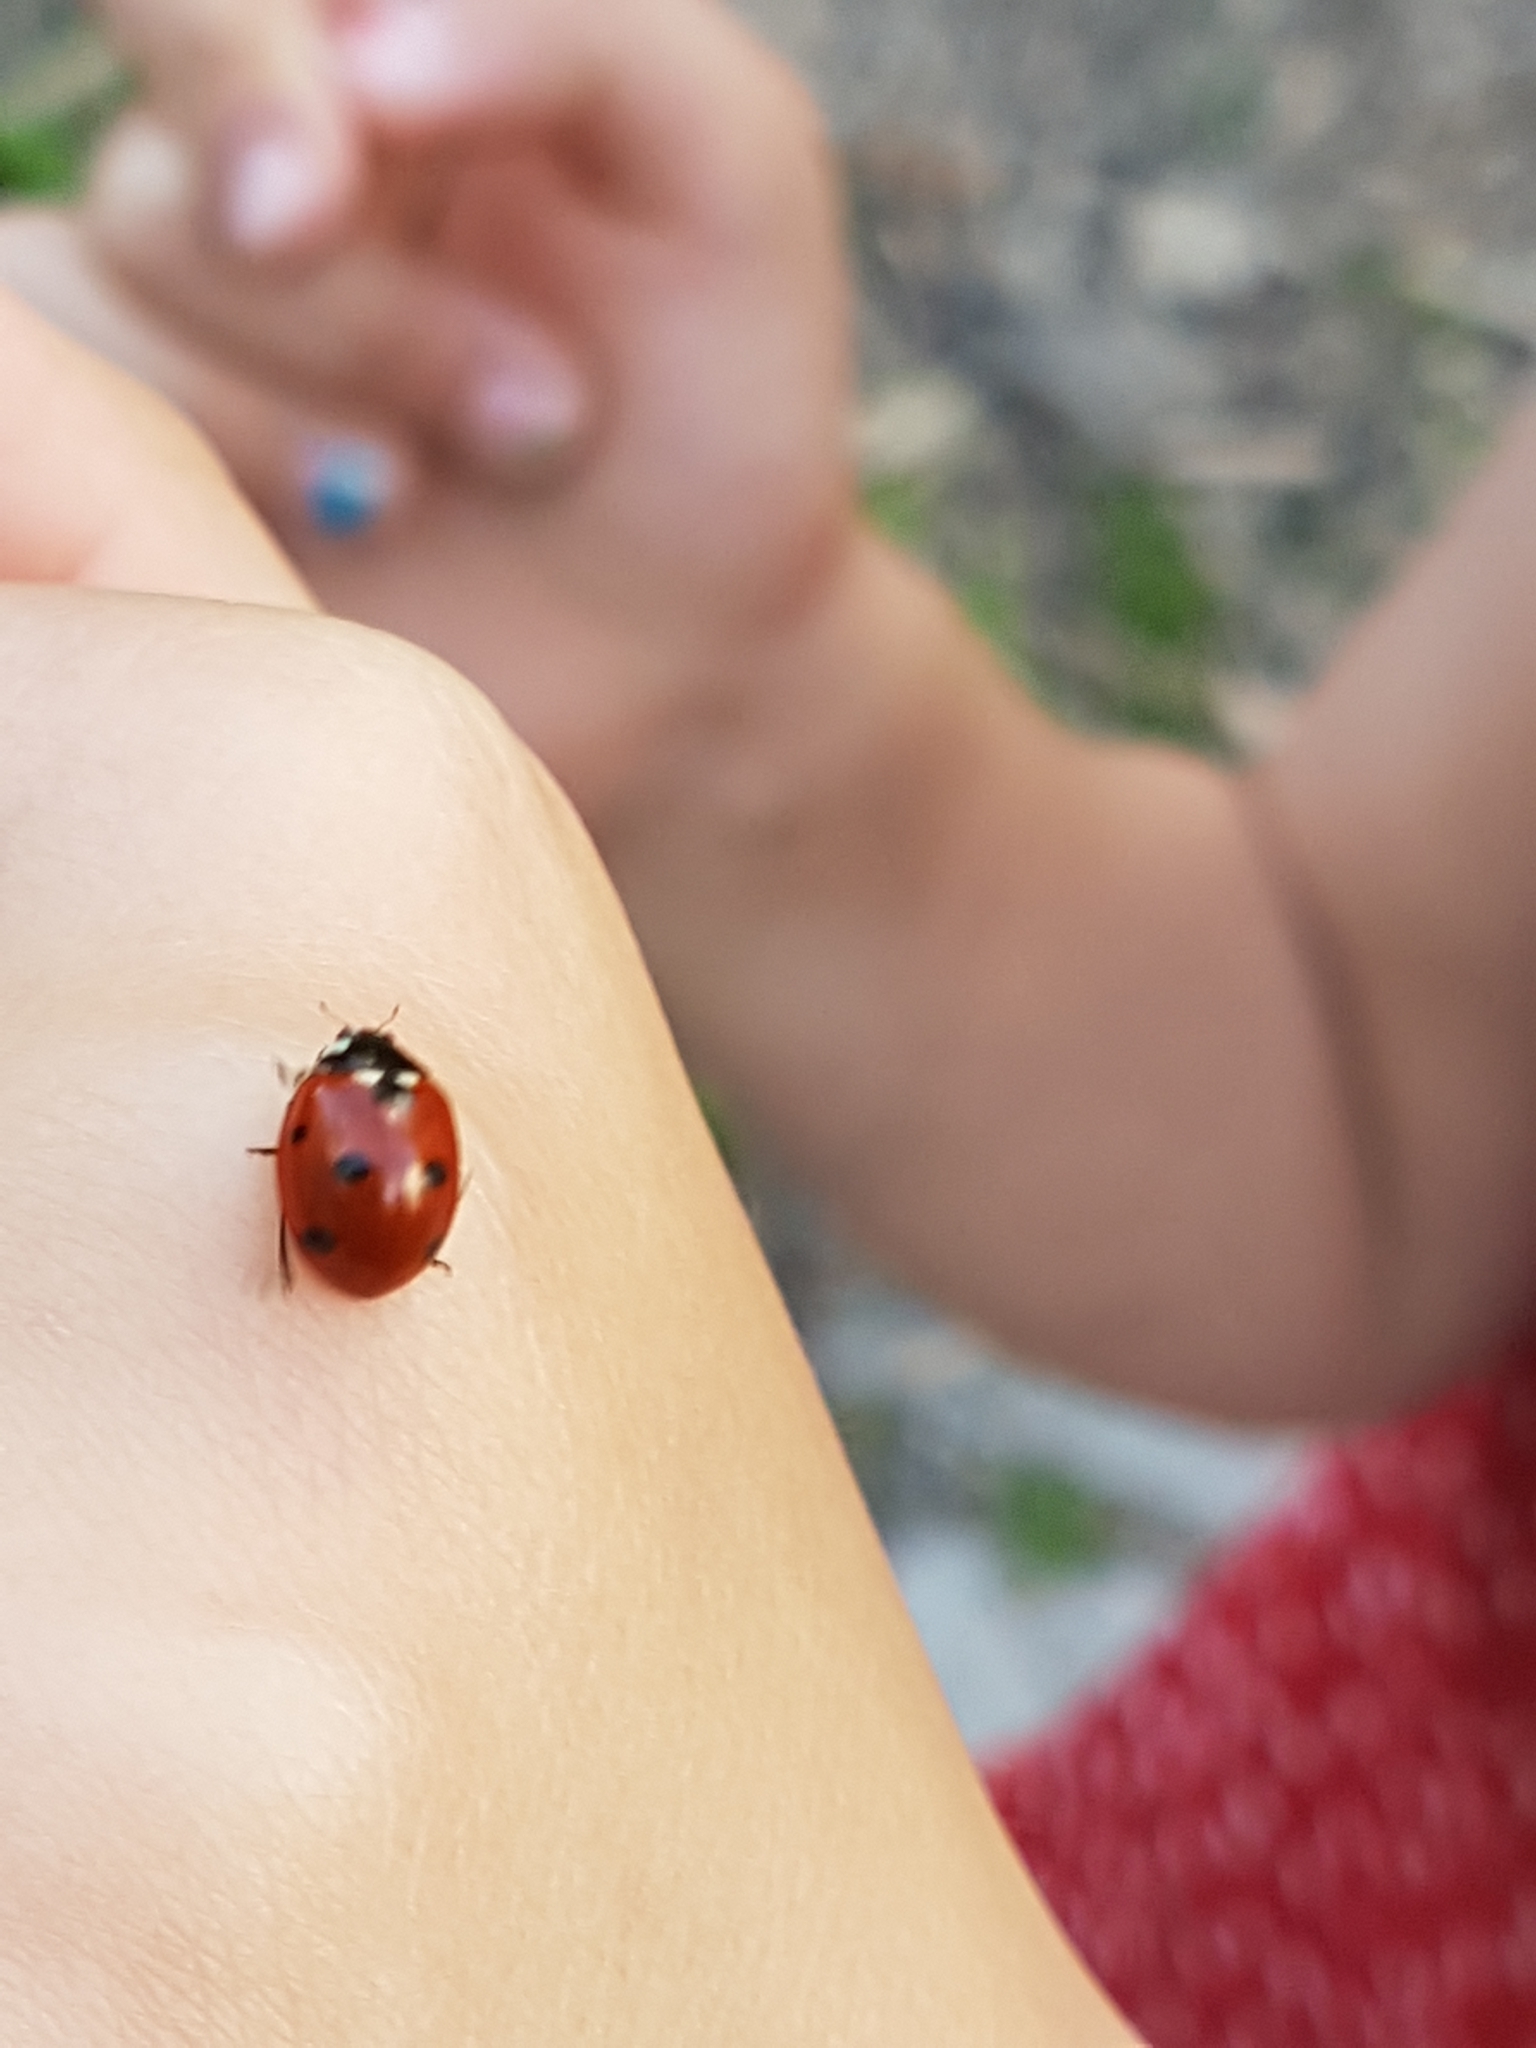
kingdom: Animalia
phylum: Arthropoda
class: Insecta
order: Coleoptera
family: Coccinellidae
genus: Coccinella
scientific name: Coccinella septempunctata
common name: Sevenspotted lady beetle
